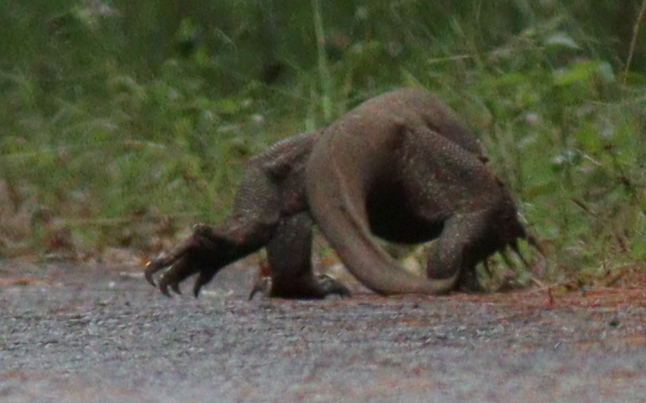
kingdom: Animalia
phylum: Chordata
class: Squamata
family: Varanidae
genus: Varanus
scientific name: Varanus nebulosus
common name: Clouded monitor
